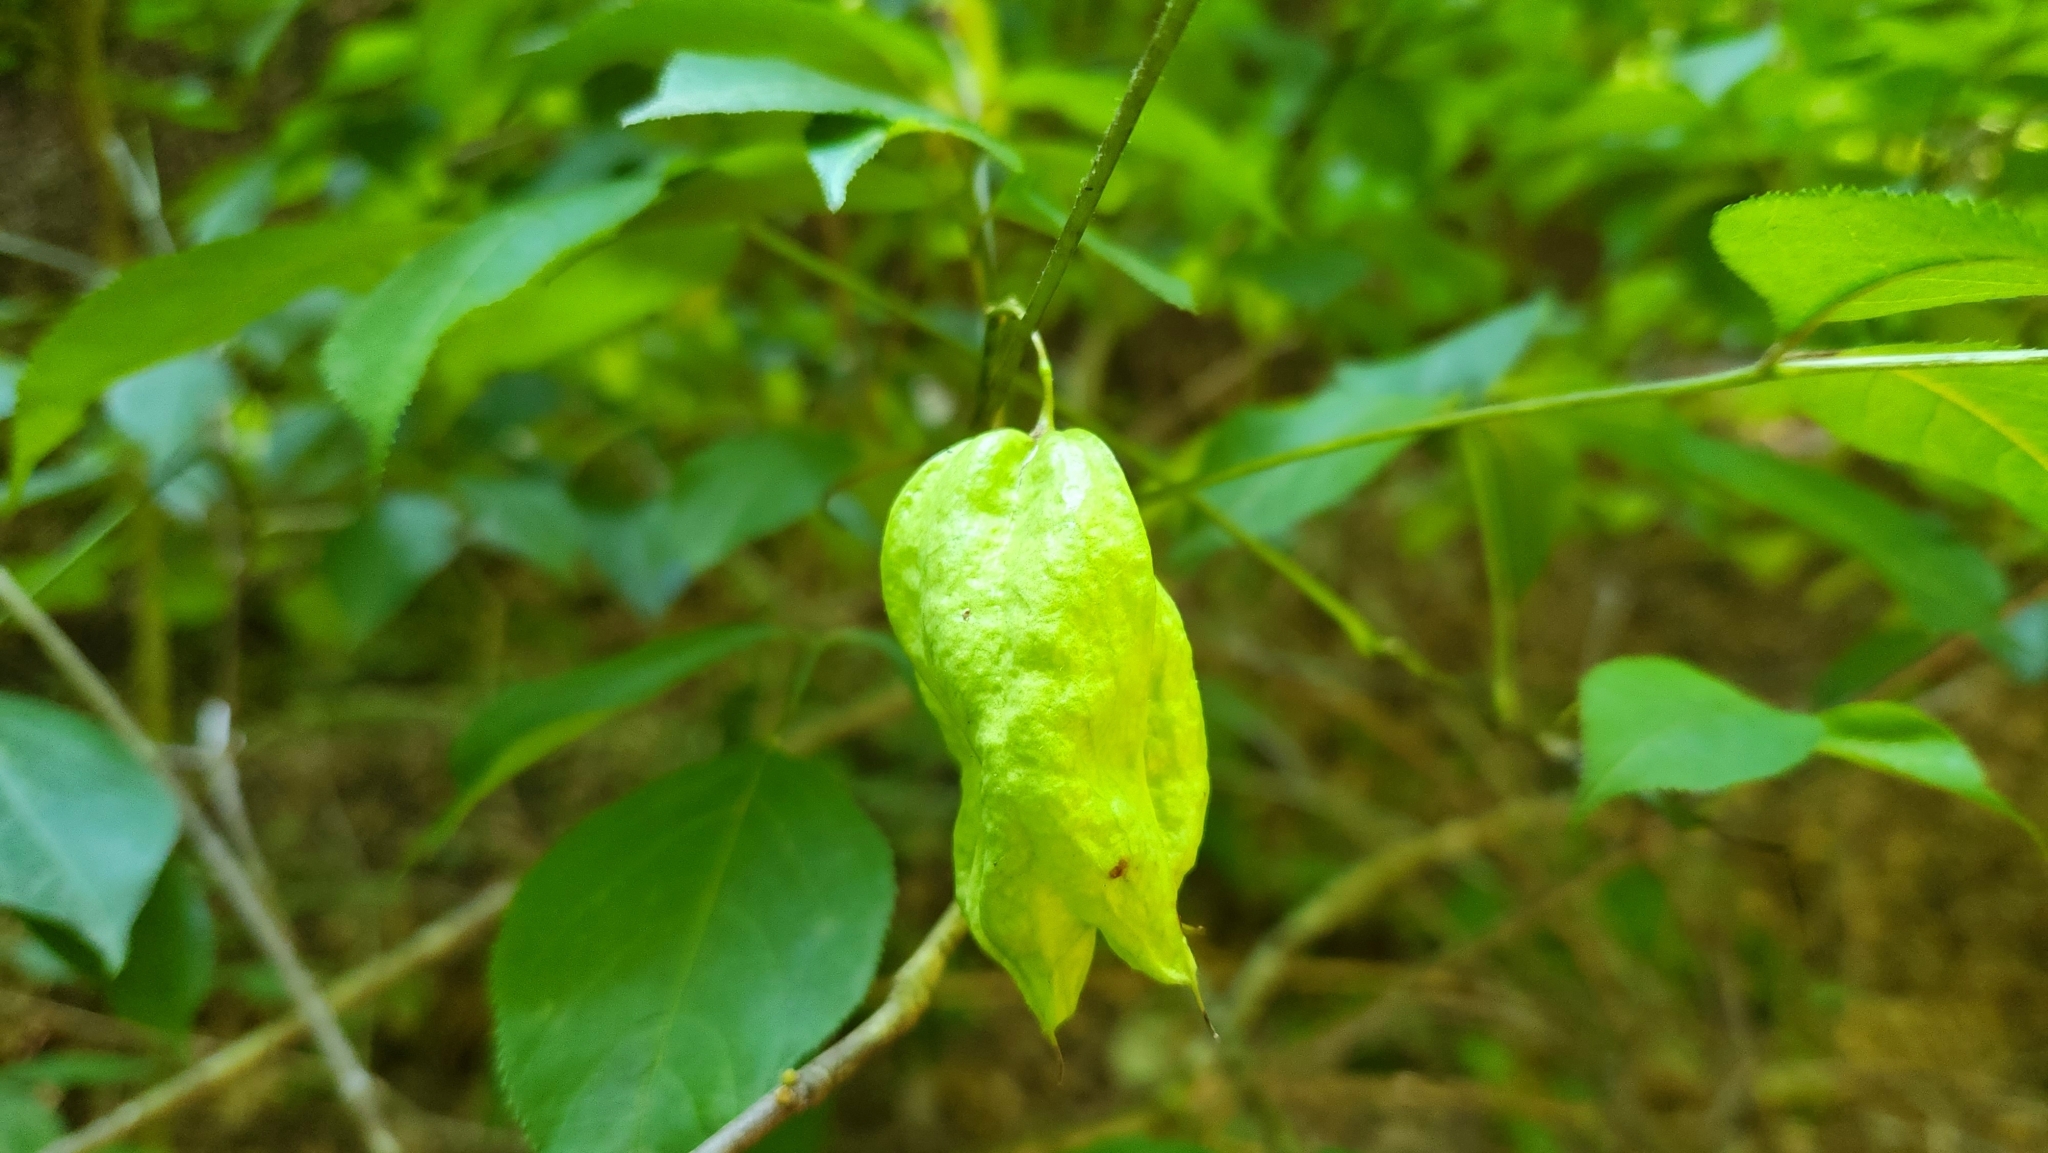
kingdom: Plantae
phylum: Tracheophyta
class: Magnoliopsida
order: Crossosomatales
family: Staphyleaceae
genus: Staphylea
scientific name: Staphylea trifolia
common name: American bladdernut
